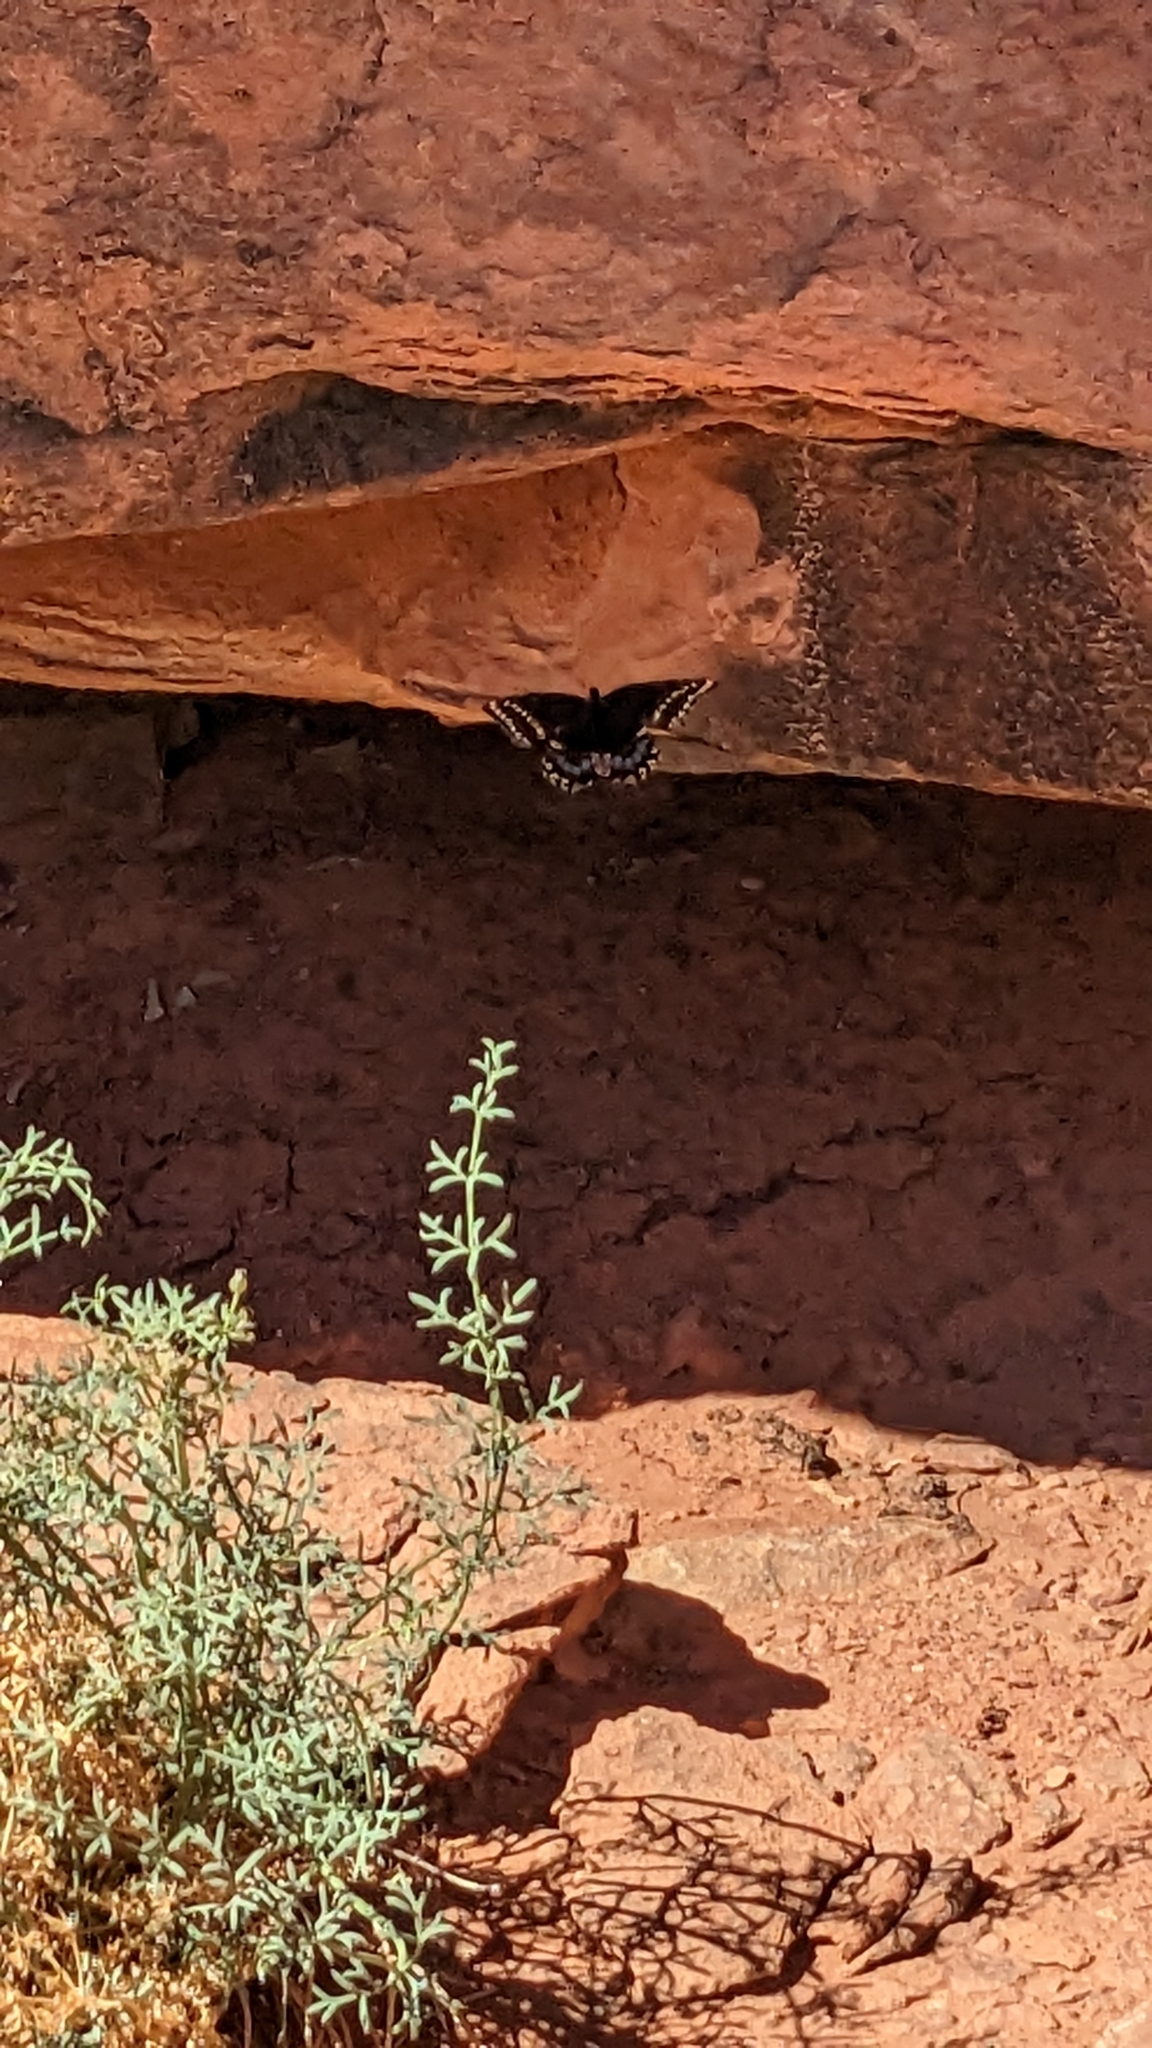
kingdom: Animalia
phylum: Arthropoda
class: Insecta
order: Lepidoptera
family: Papilionidae
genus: Papilio
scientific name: Papilio indra
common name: Cliff swallowtail
